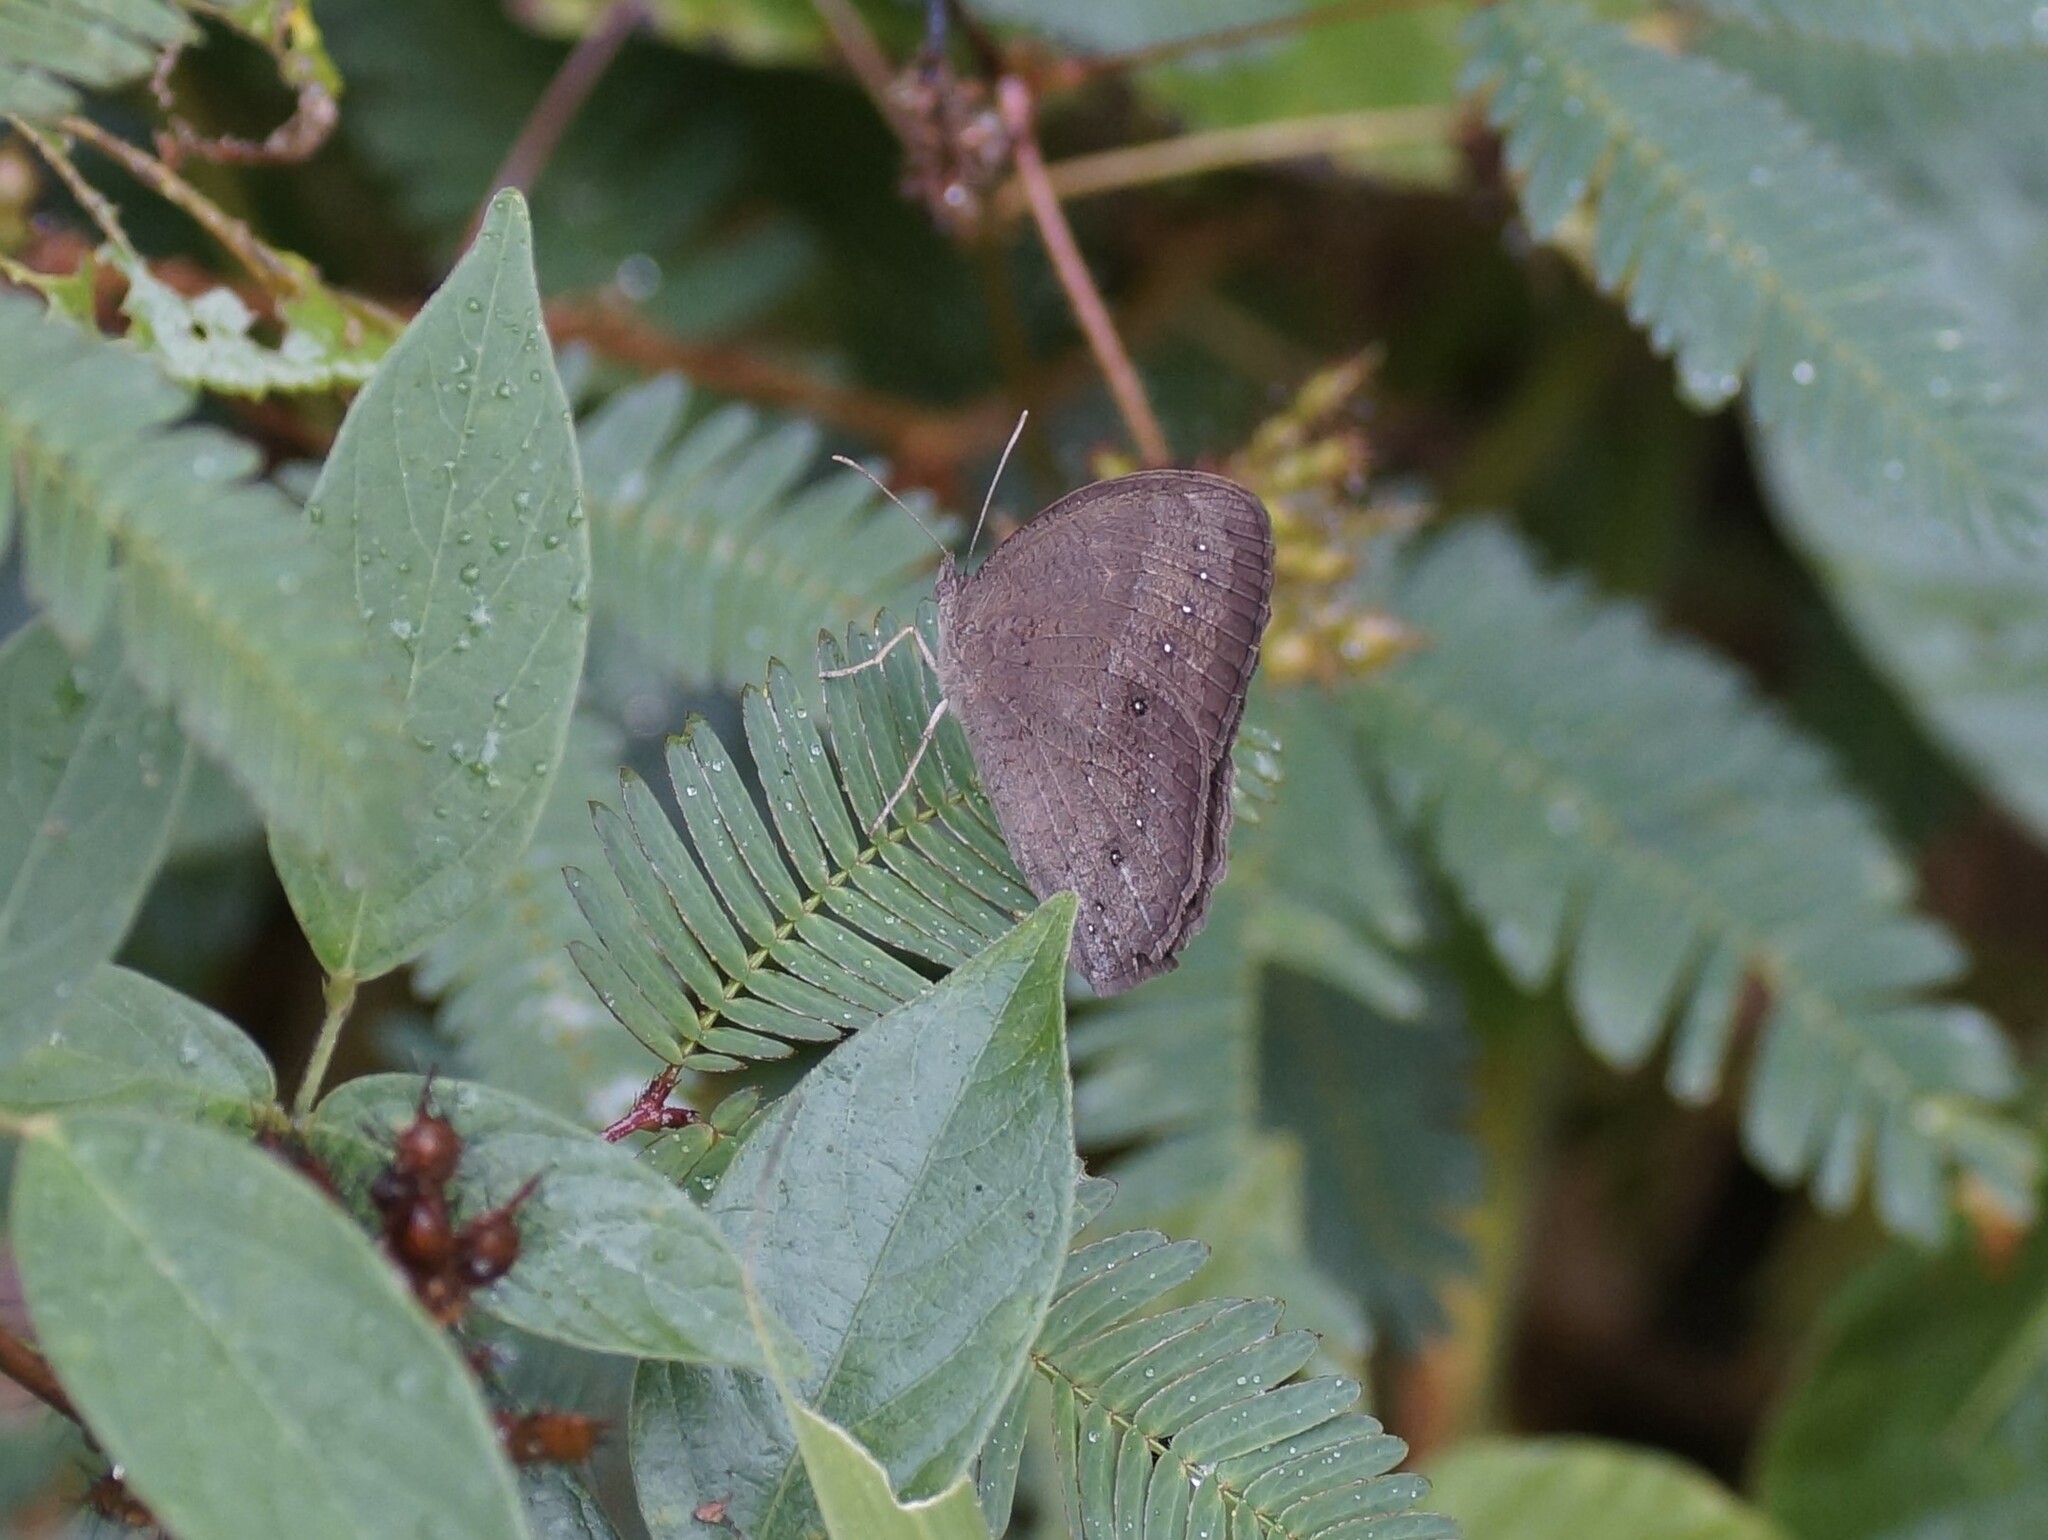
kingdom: Animalia
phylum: Arthropoda
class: Insecta
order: Lepidoptera
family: Nymphalidae
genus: Mycalesis
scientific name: Mycalesis perseus
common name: Dingy bushbrown
